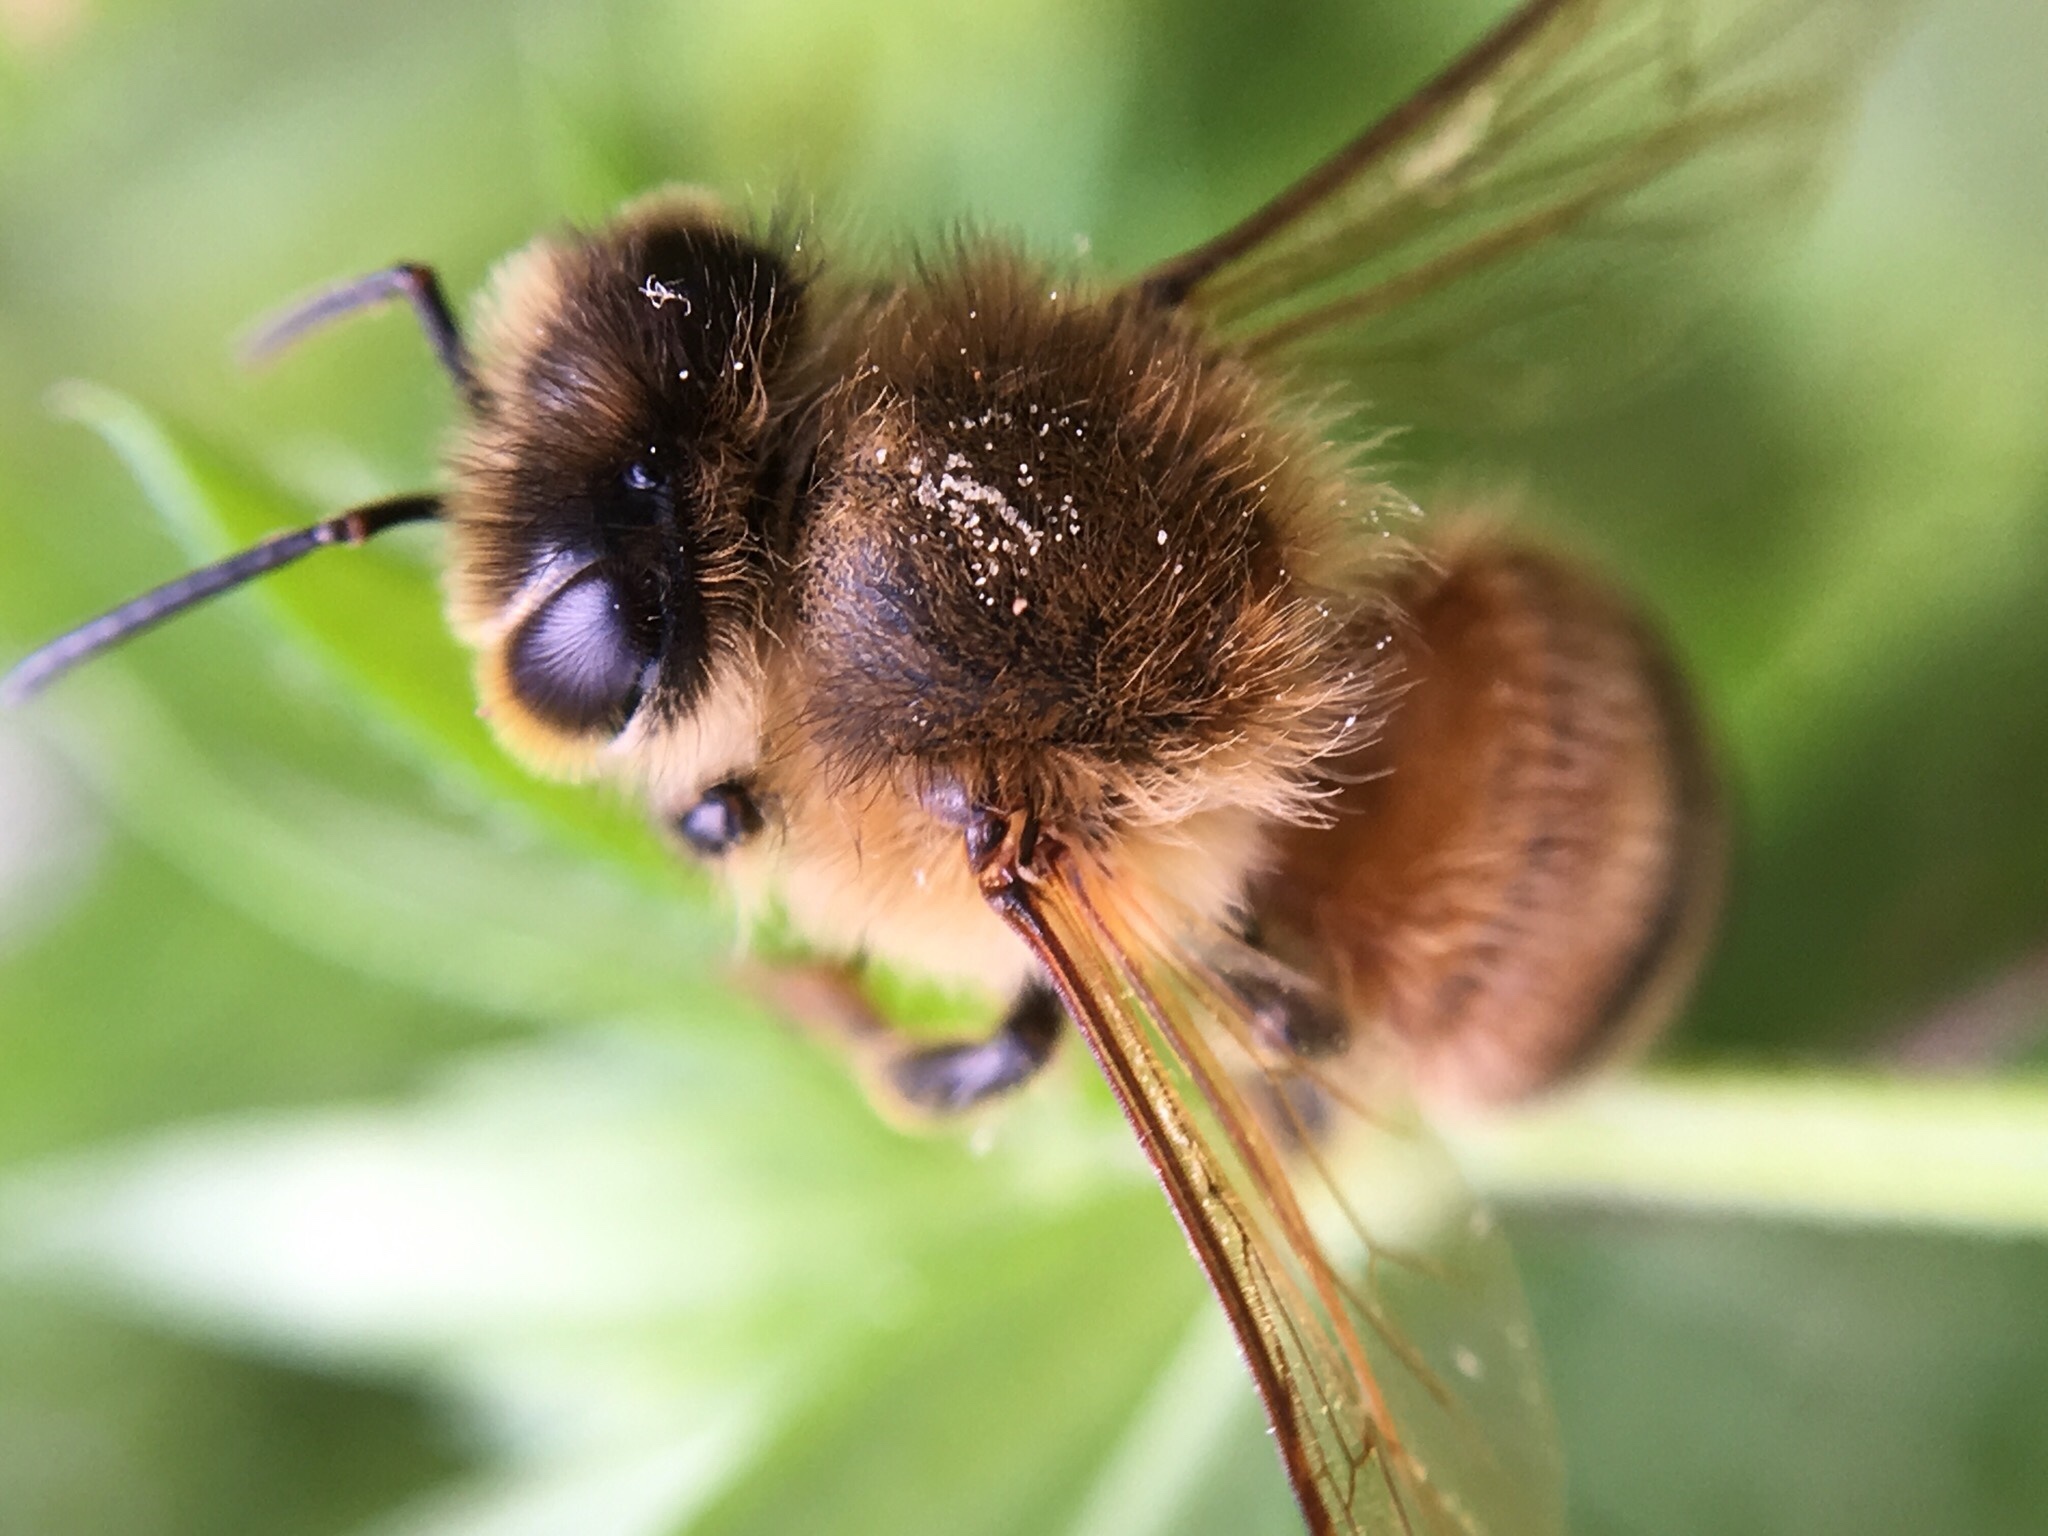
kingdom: Animalia
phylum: Arthropoda
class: Insecta
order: Hymenoptera
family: Apidae
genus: Apis
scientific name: Apis mellifera
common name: Honey bee
